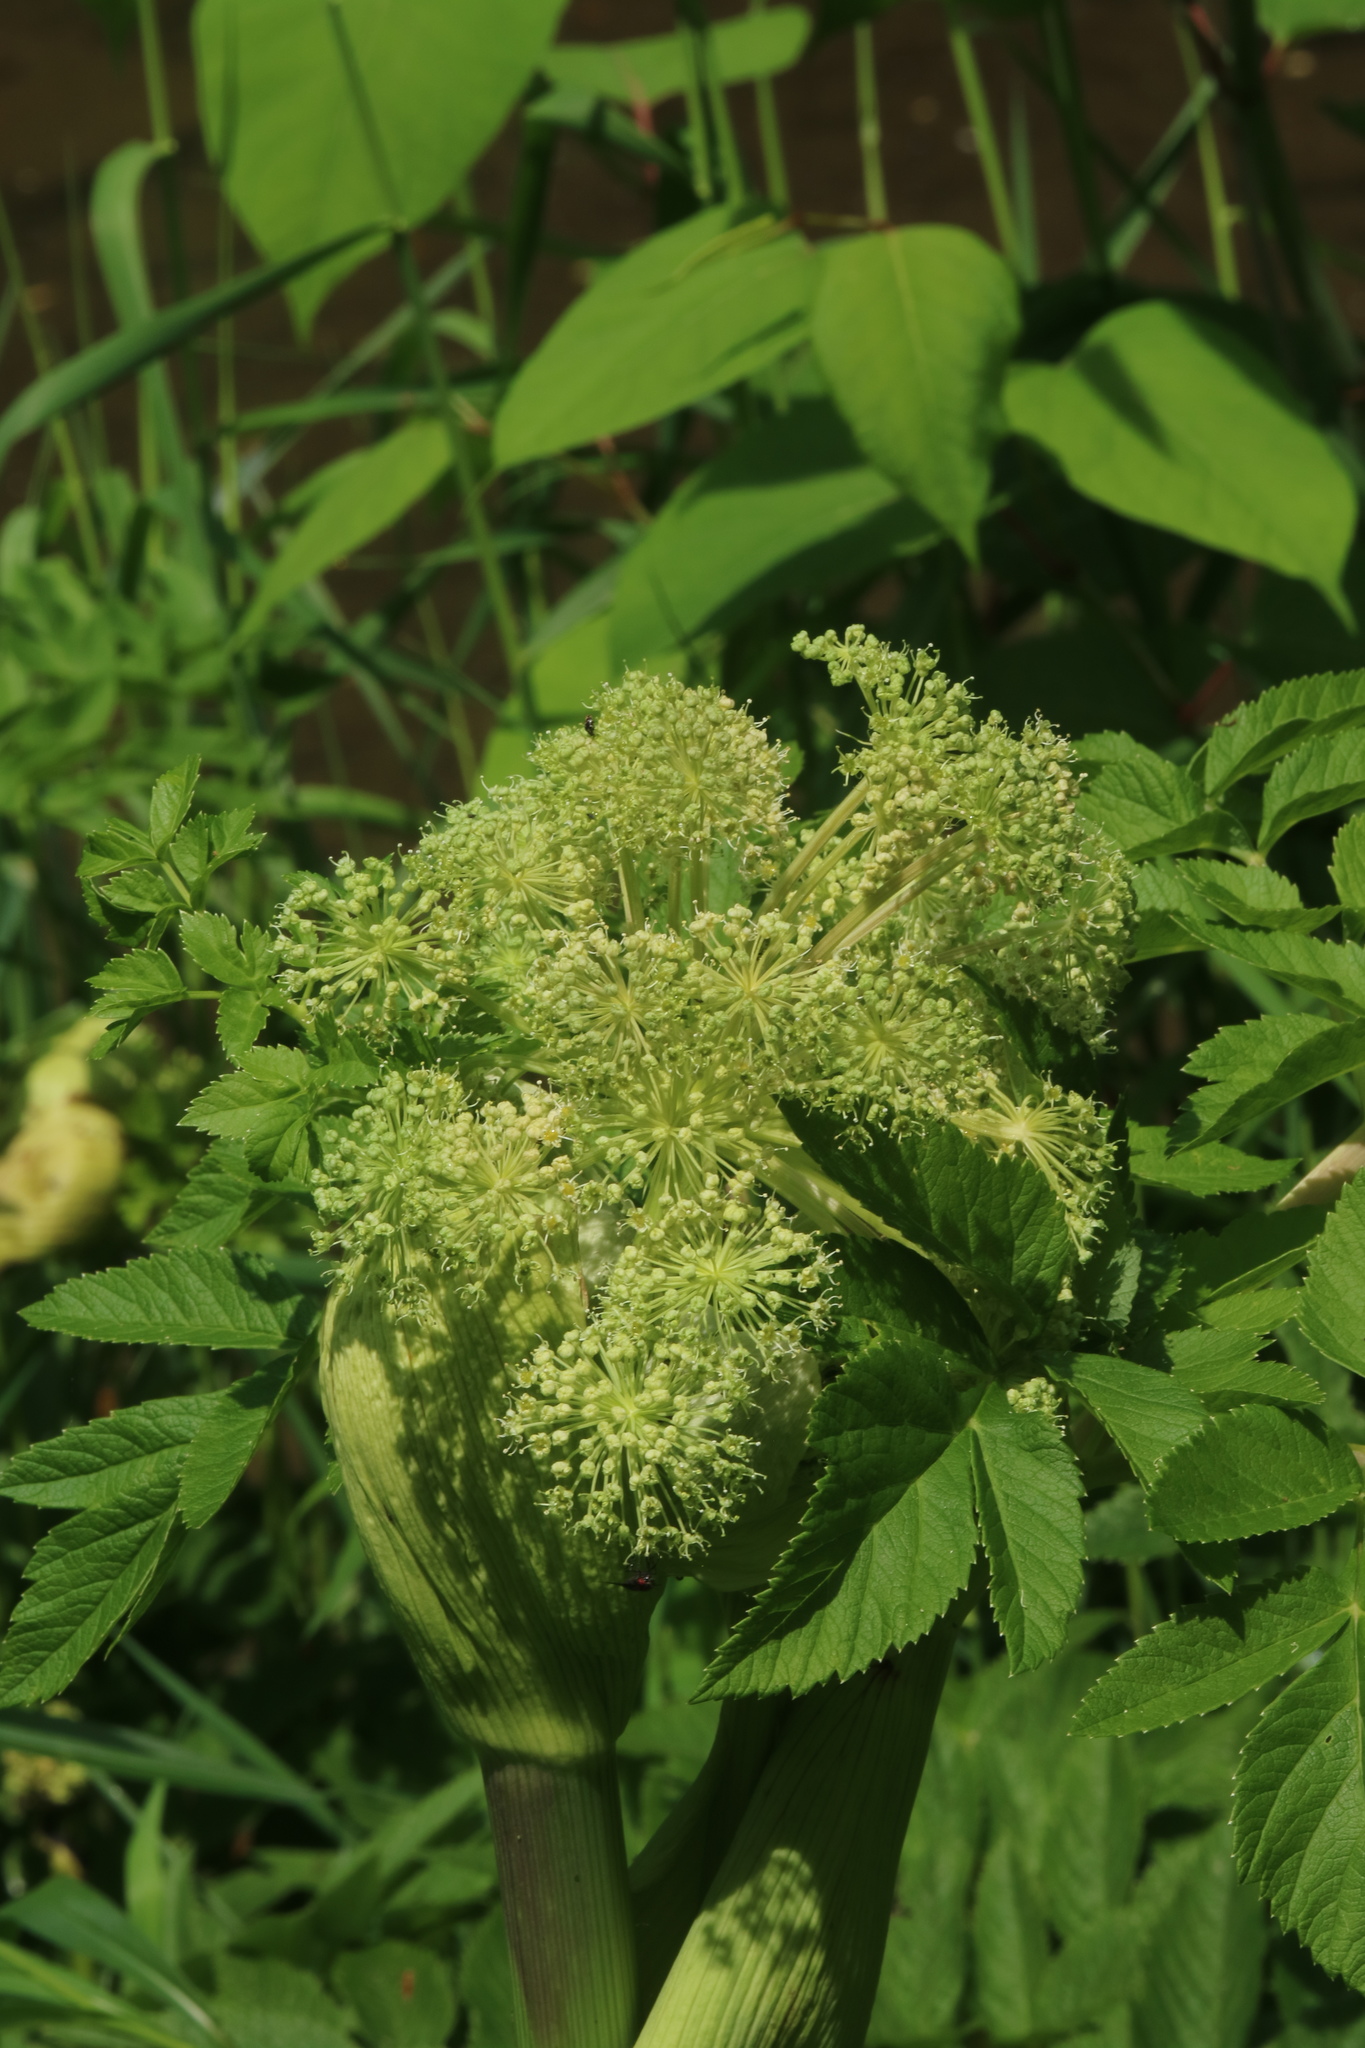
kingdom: Plantae
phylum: Tracheophyta
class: Magnoliopsida
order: Apiales
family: Apiaceae
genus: Angelica
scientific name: Angelica atropurpurea
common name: Great angelica
